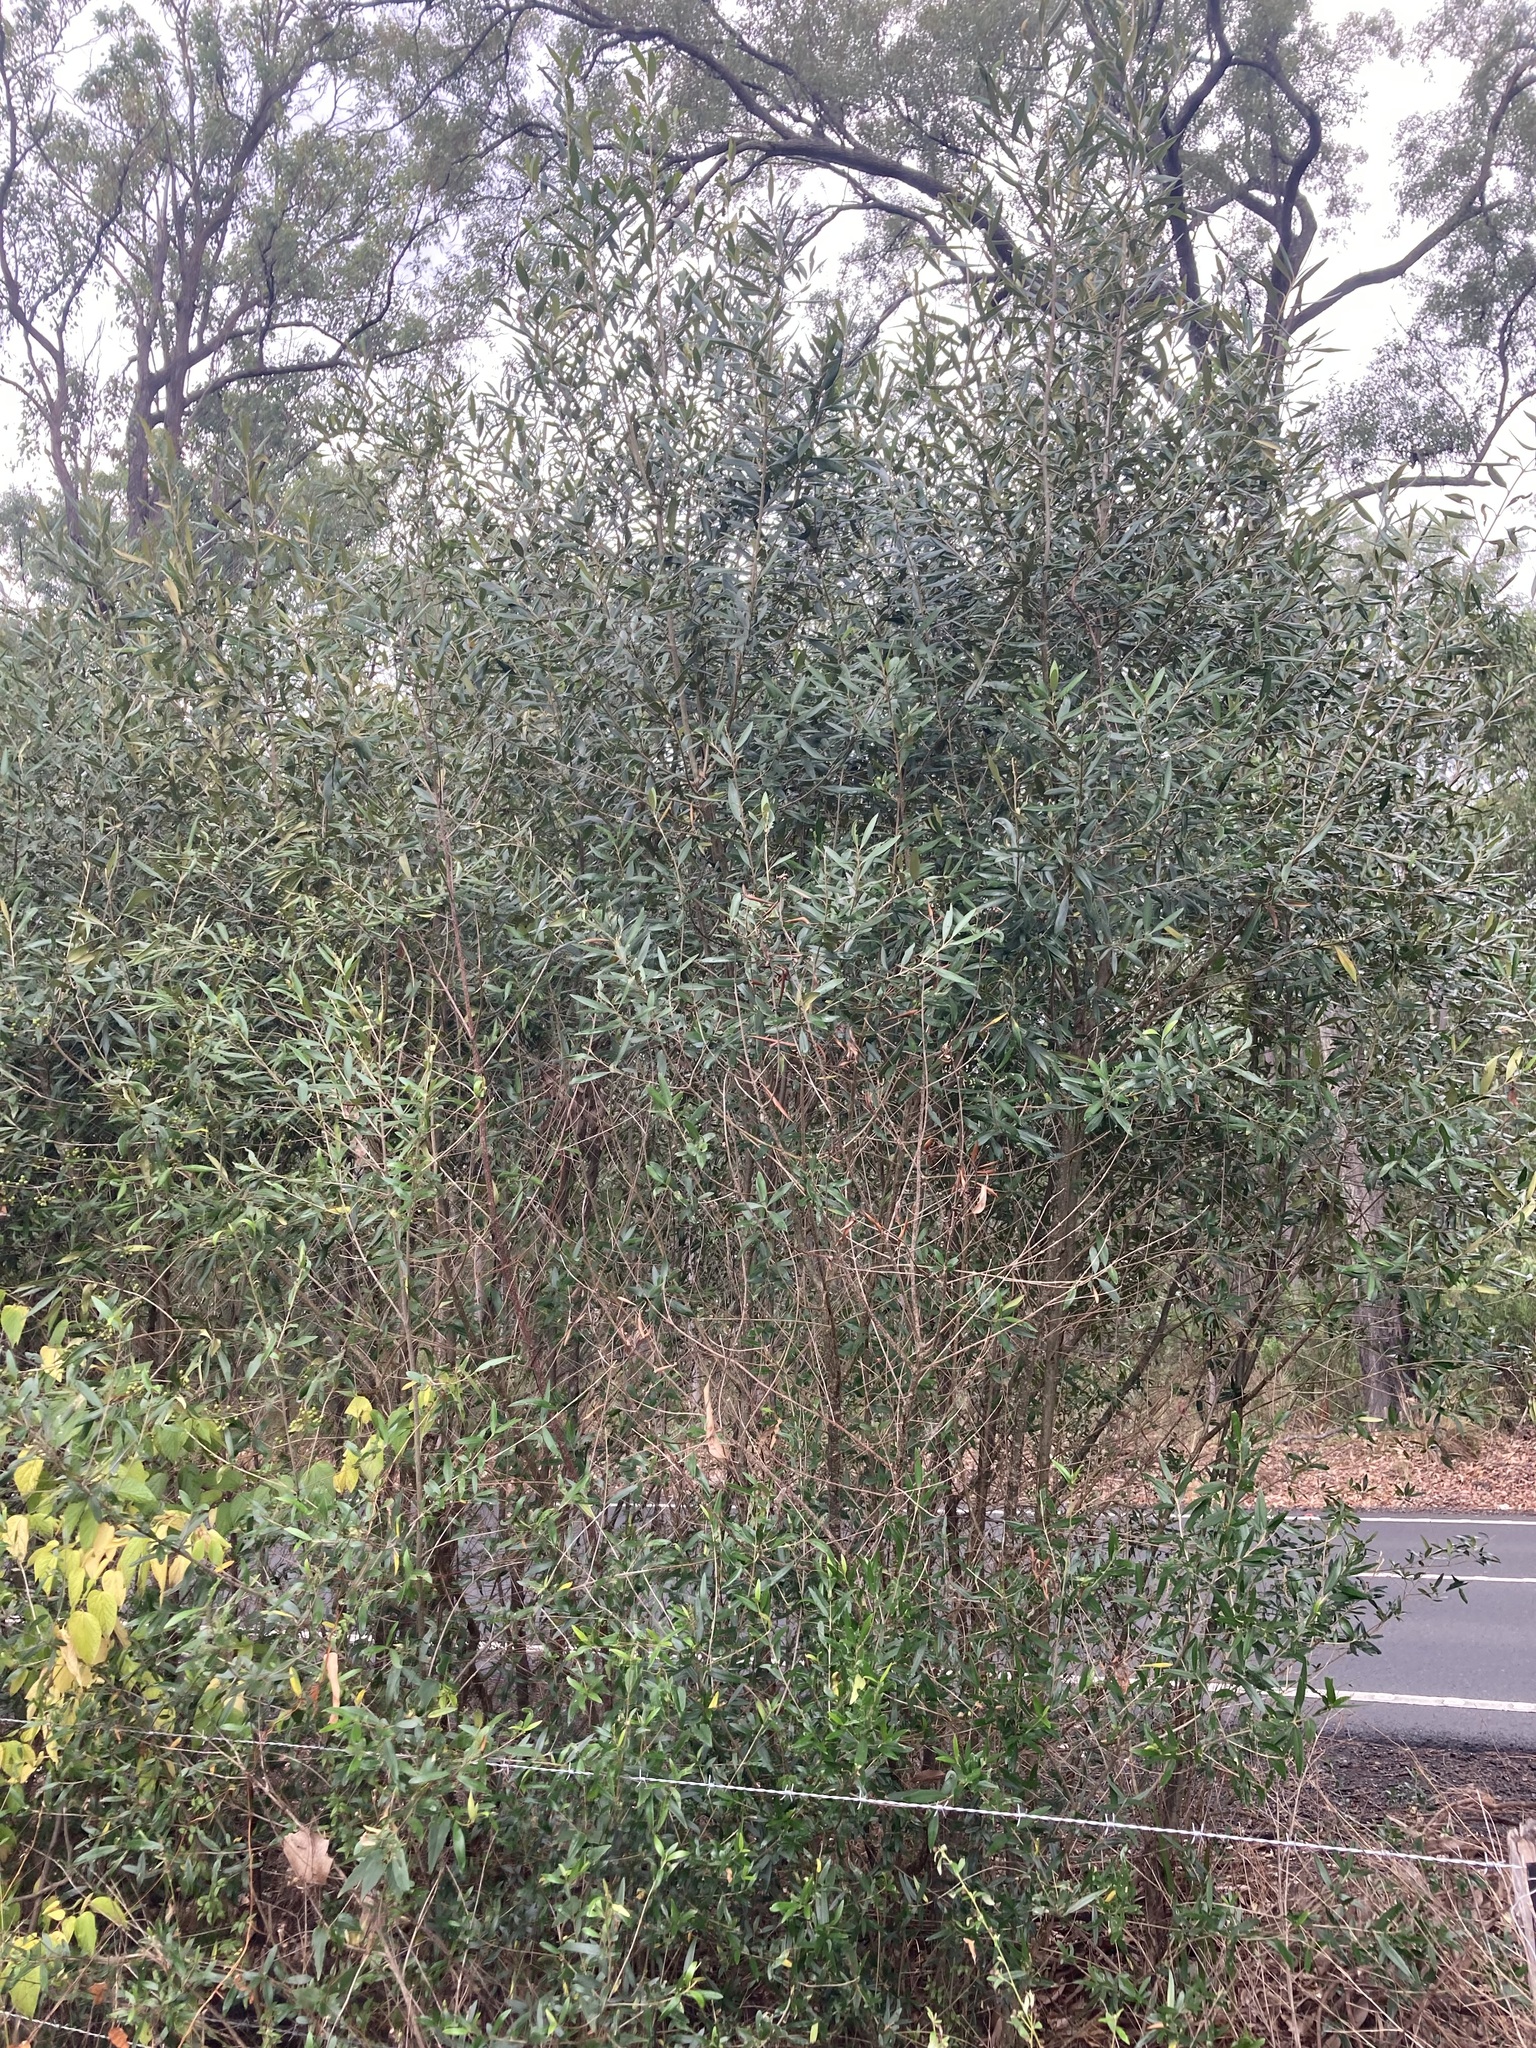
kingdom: Plantae
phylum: Tracheophyta
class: Magnoliopsida
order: Lamiales
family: Oleaceae
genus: Olea
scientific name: Olea europaea
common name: Olive
